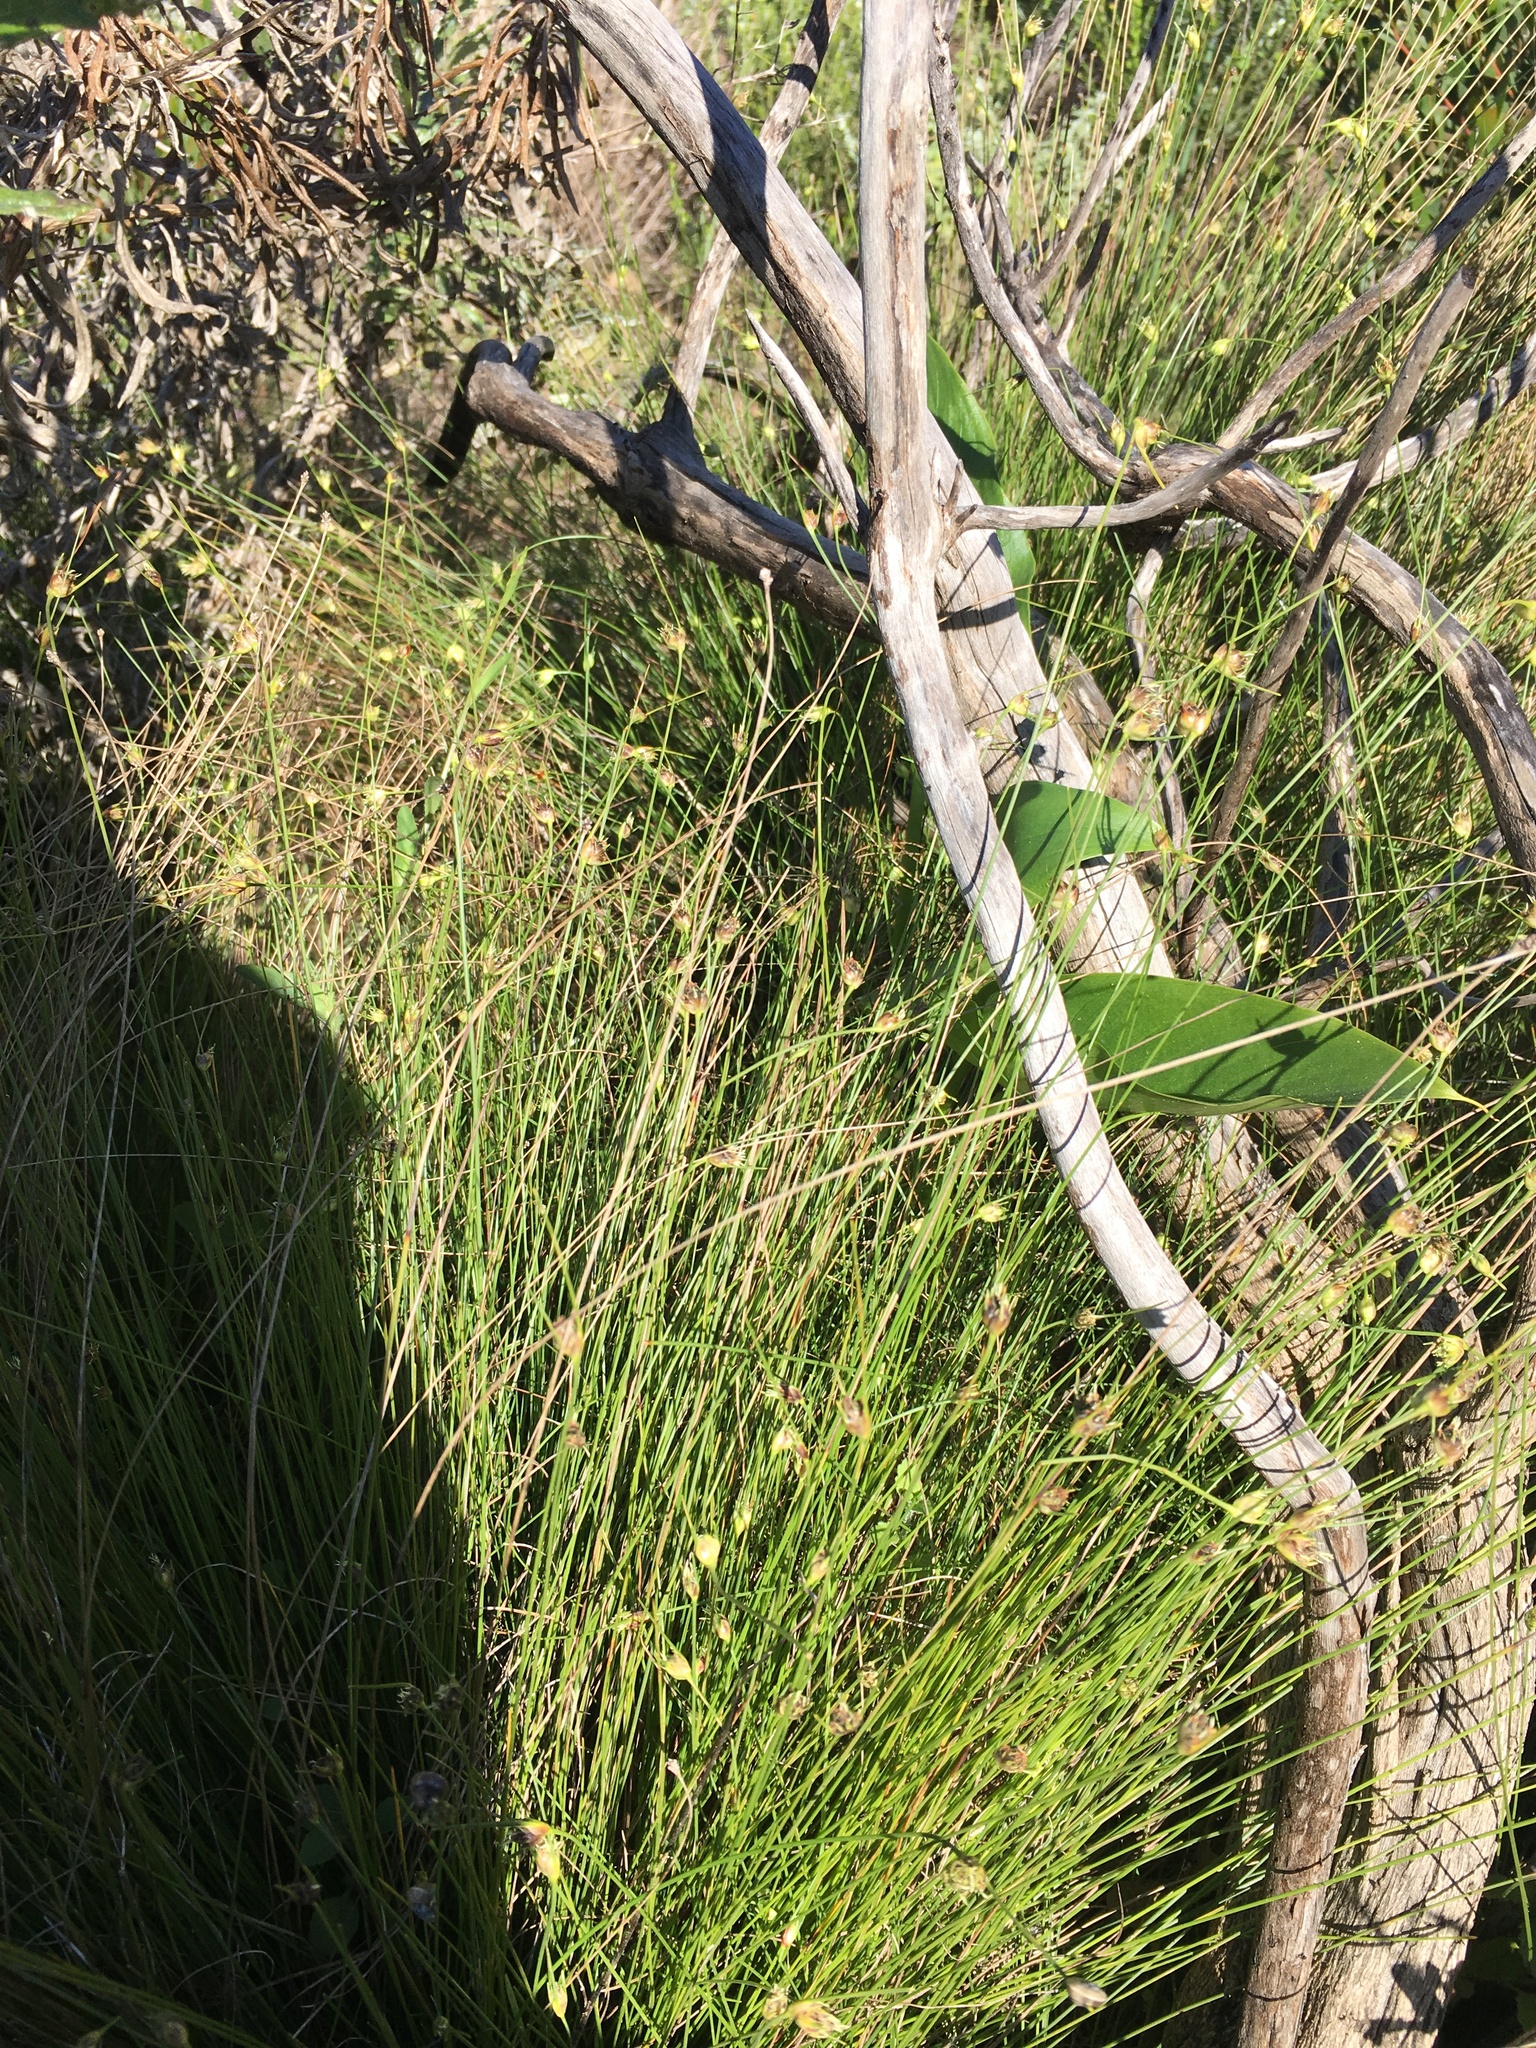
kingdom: Plantae
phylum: Tracheophyta
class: Liliopsida
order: Poales
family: Cyperaceae
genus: Ficinia
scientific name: Ficinia capitella
